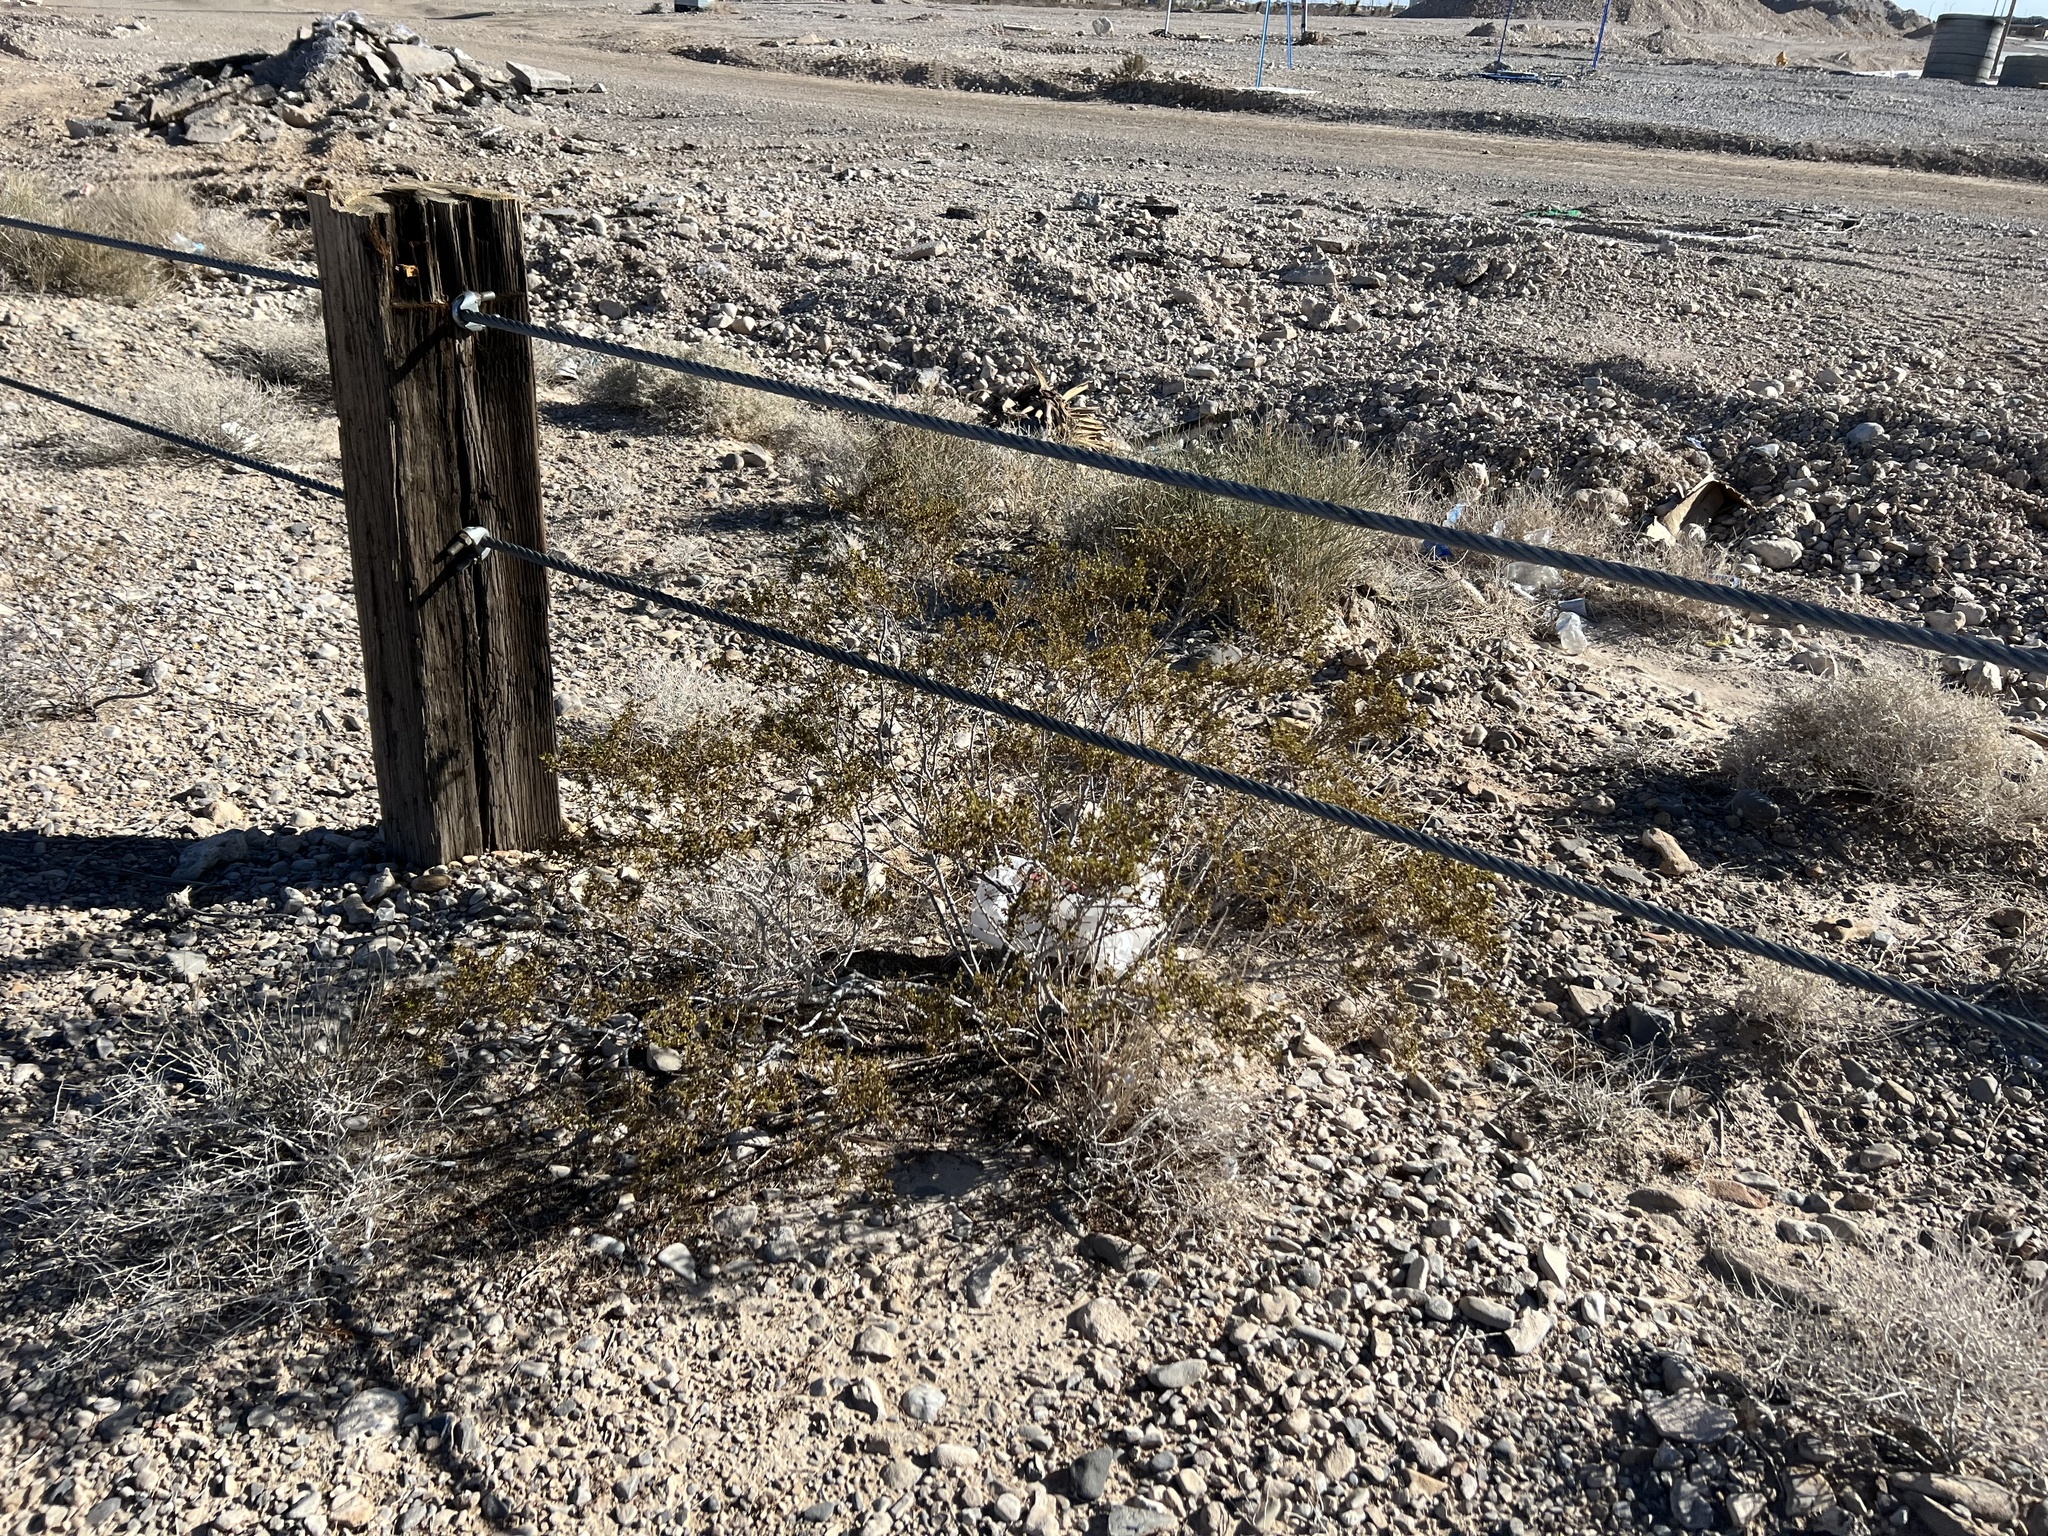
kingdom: Plantae
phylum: Tracheophyta
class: Magnoliopsida
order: Zygophyllales
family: Zygophyllaceae
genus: Larrea
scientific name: Larrea tridentata
